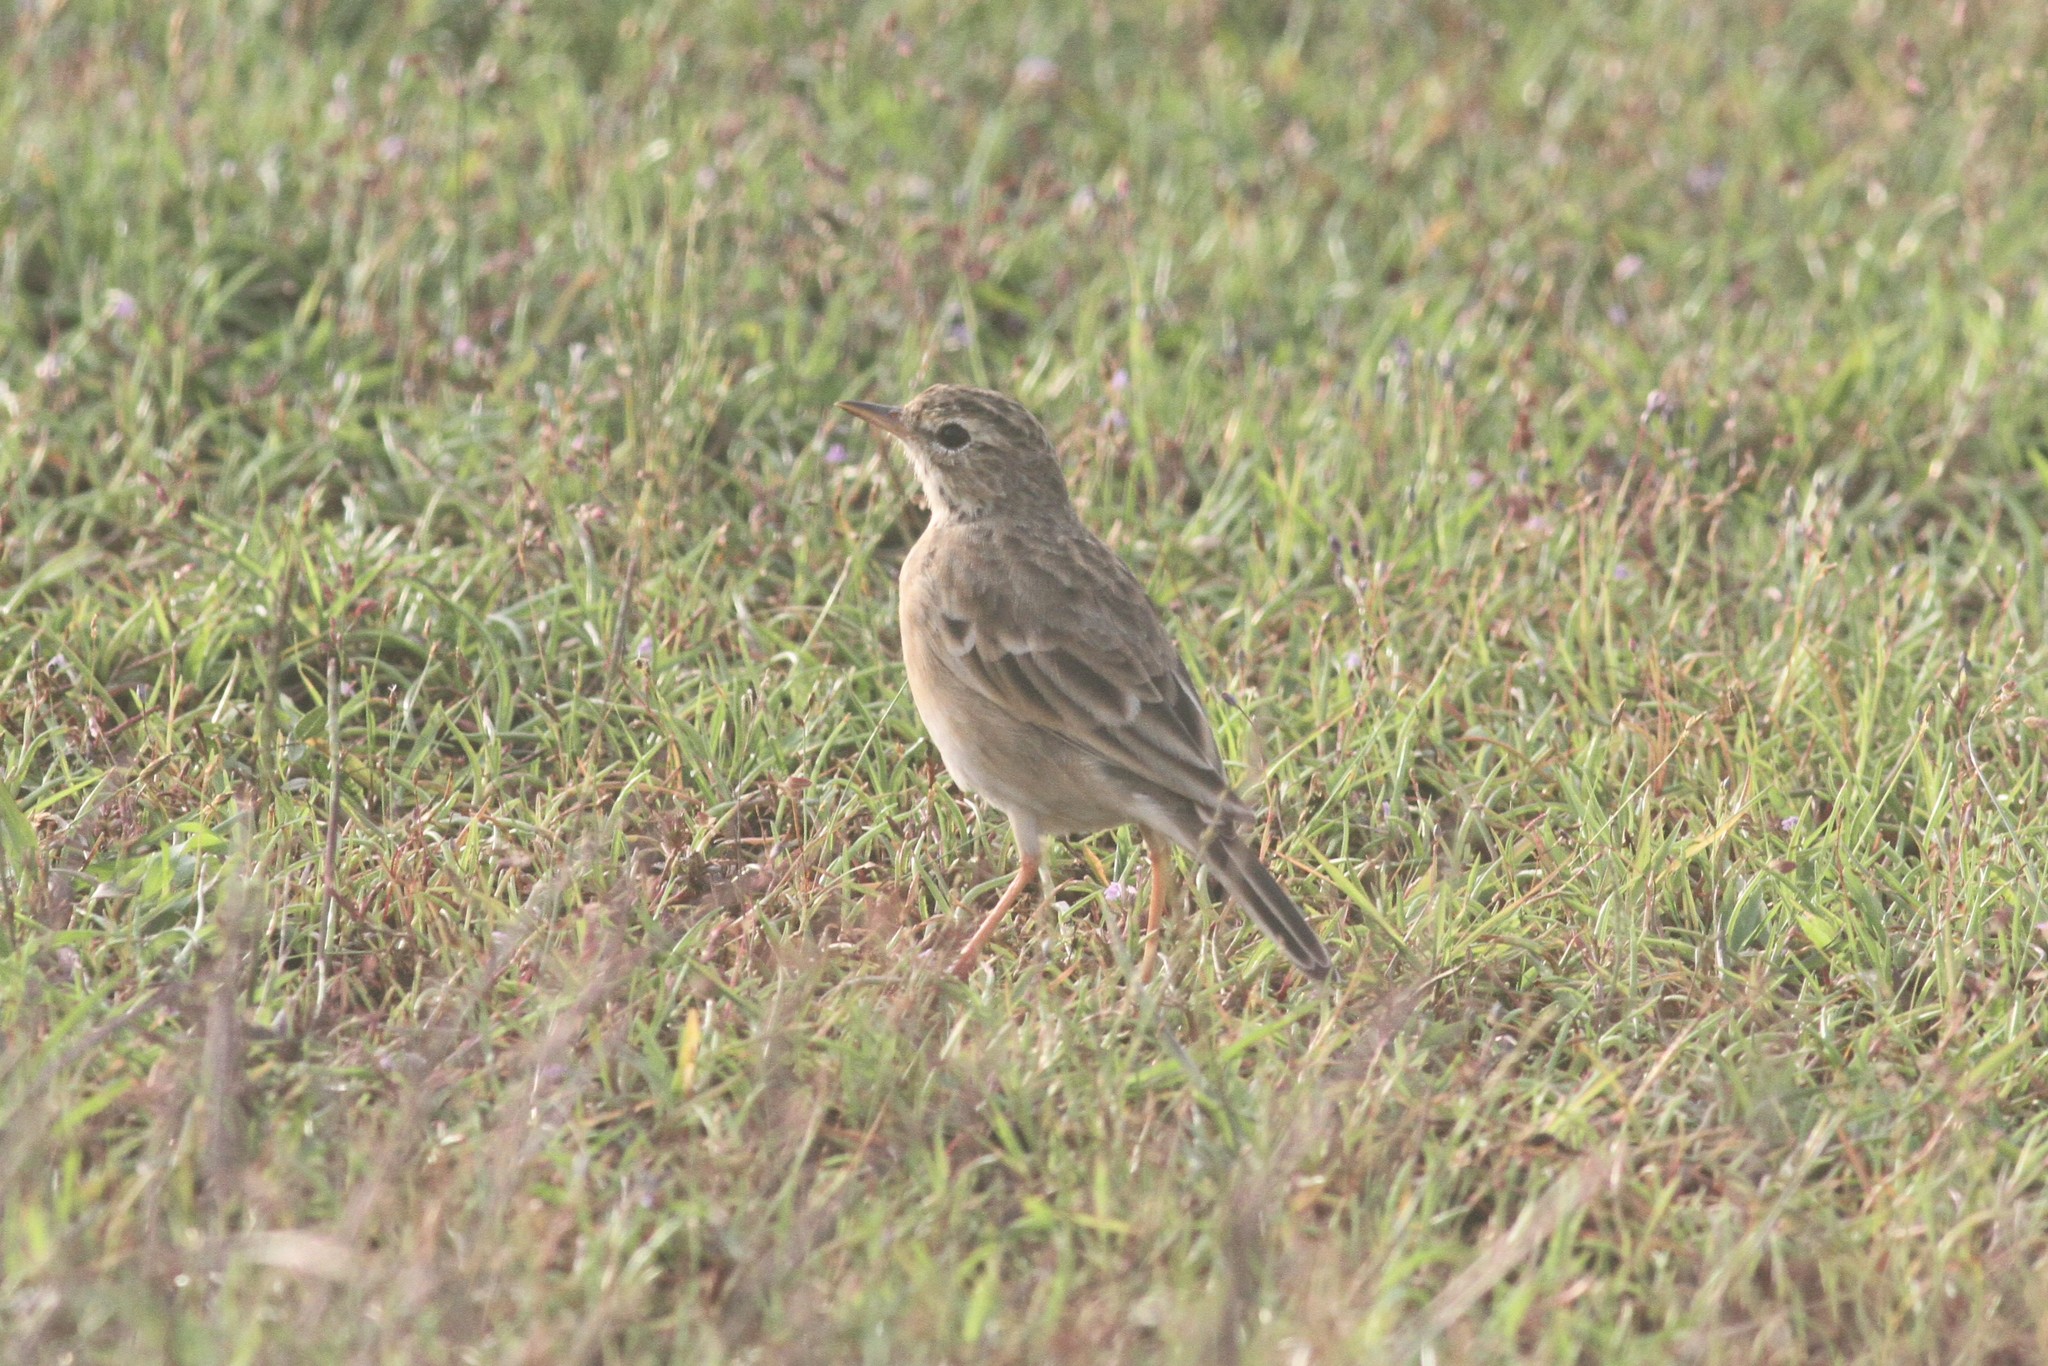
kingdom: Animalia
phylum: Chordata
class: Aves
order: Passeriformes
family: Motacillidae
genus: Anthus
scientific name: Anthus rufulus
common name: Paddyfield pipit
